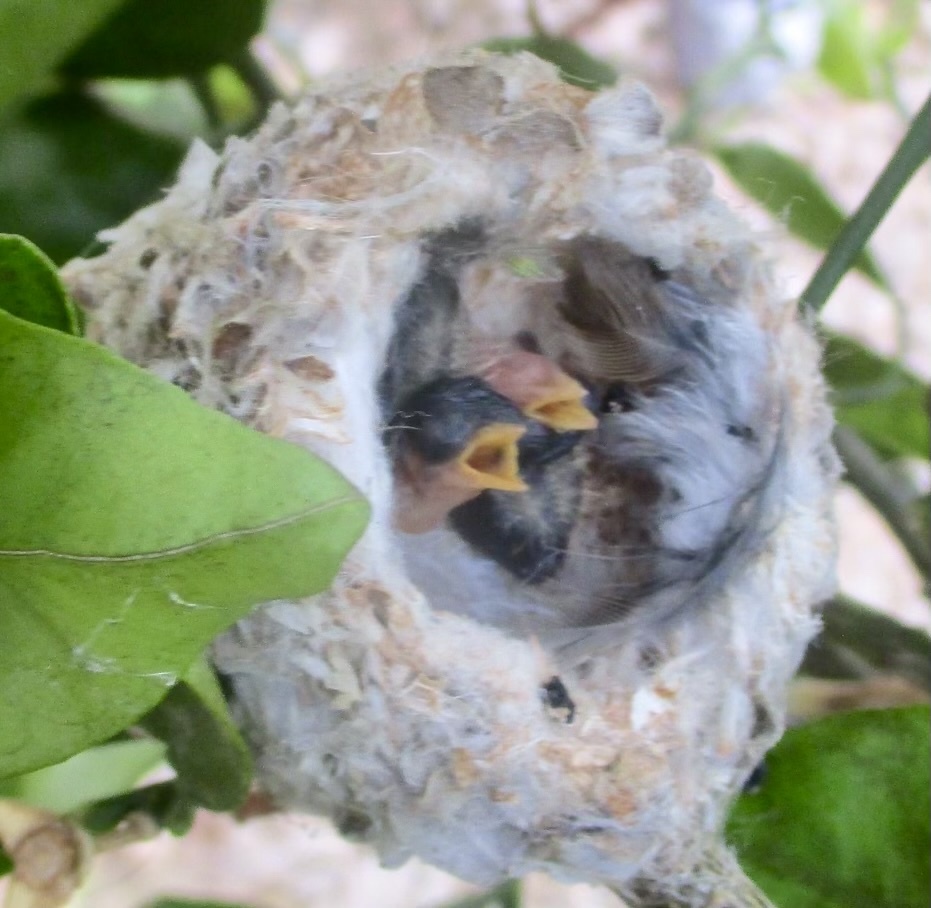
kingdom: Animalia
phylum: Chordata
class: Aves
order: Apodiformes
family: Trochilidae
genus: Calypte
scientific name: Calypte costae
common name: Costa's hummingbird
